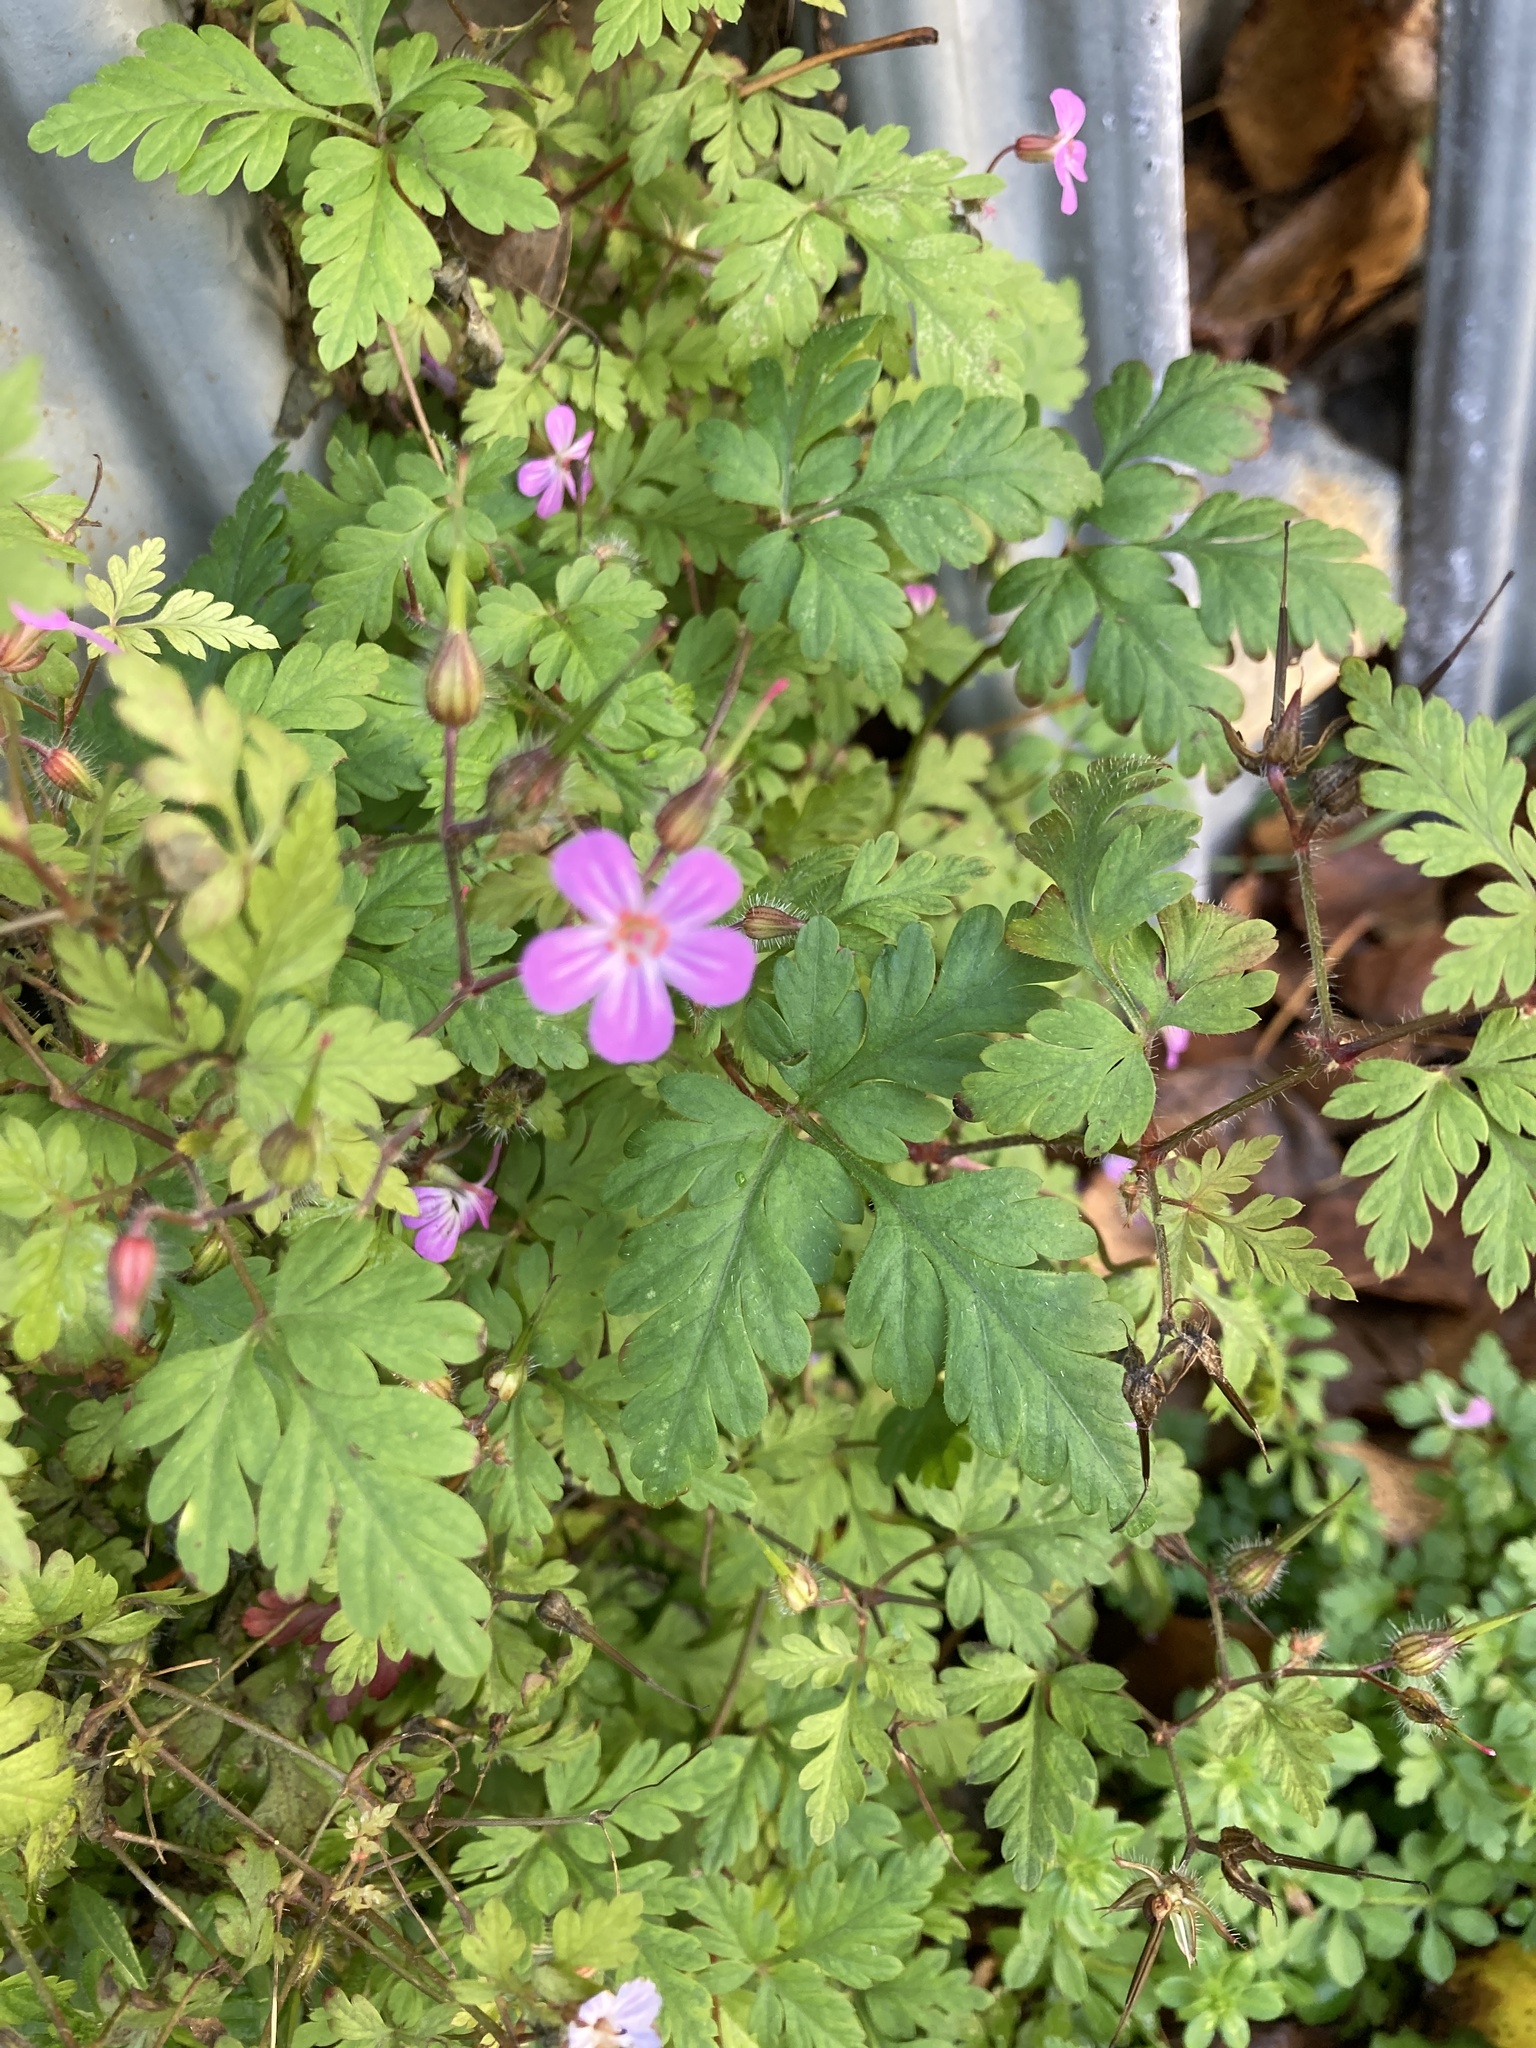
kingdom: Plantae
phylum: Tracheophyta
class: Magnoliopsida
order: Geraniales
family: Geraniaceae
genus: Geranium
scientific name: Geranium robertianum
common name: Herb-robert
